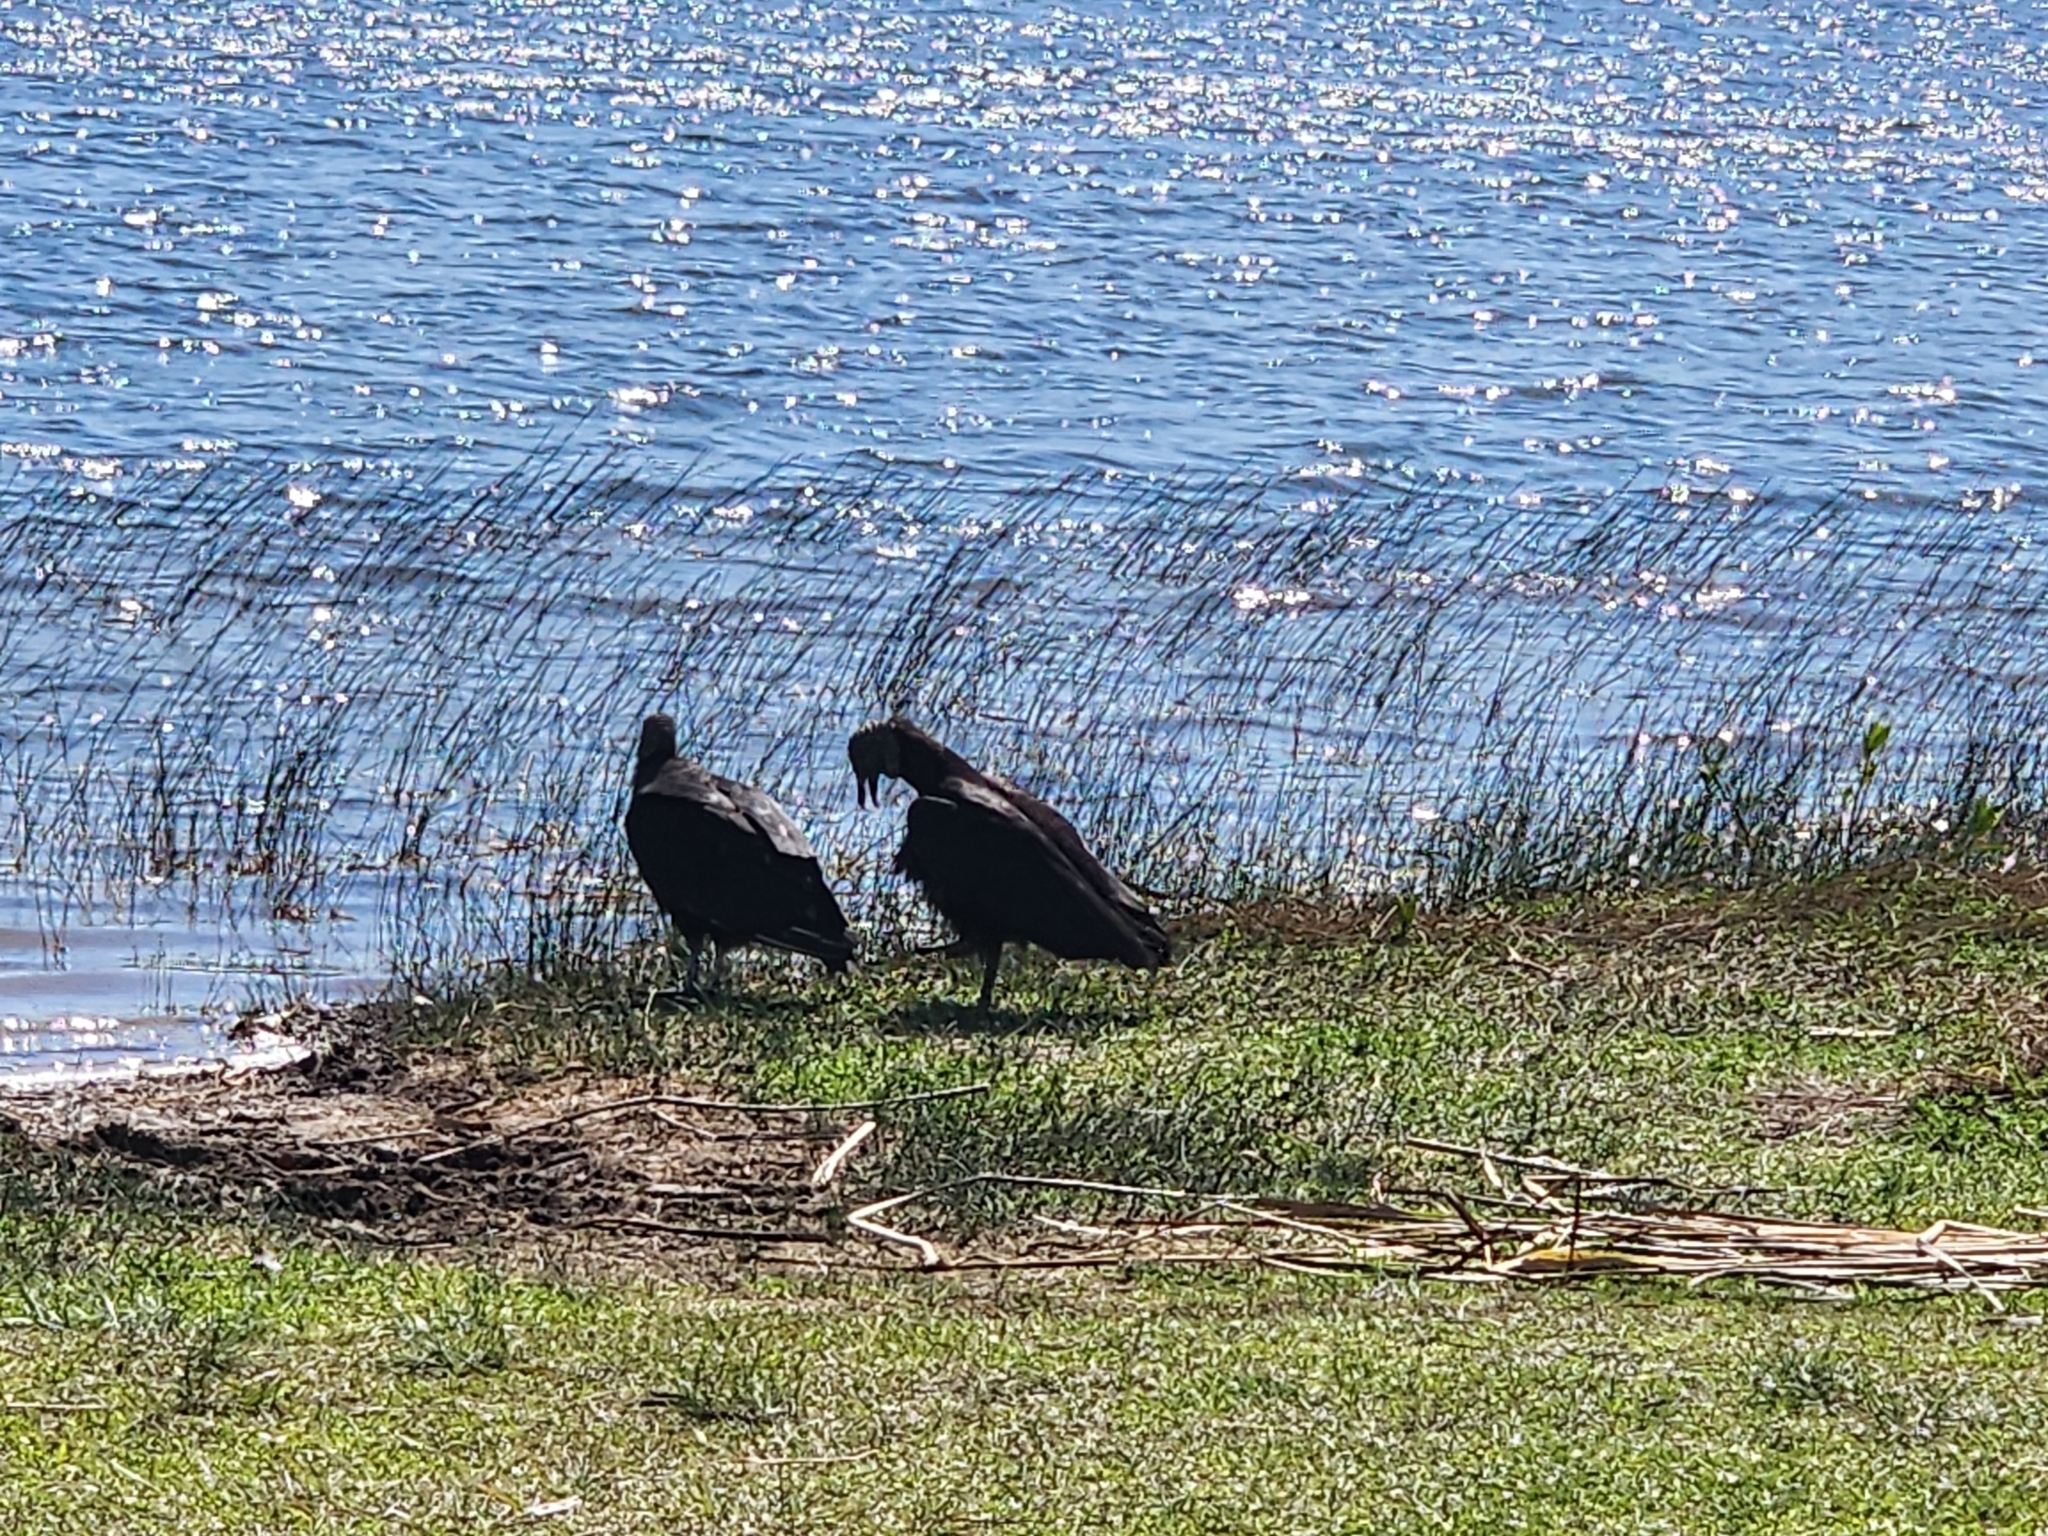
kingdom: Animalia
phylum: Chordata
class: Aves
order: Accipitriformes
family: Cathartidae
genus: Coragyps
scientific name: Coragyps atratus
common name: Black vulture
